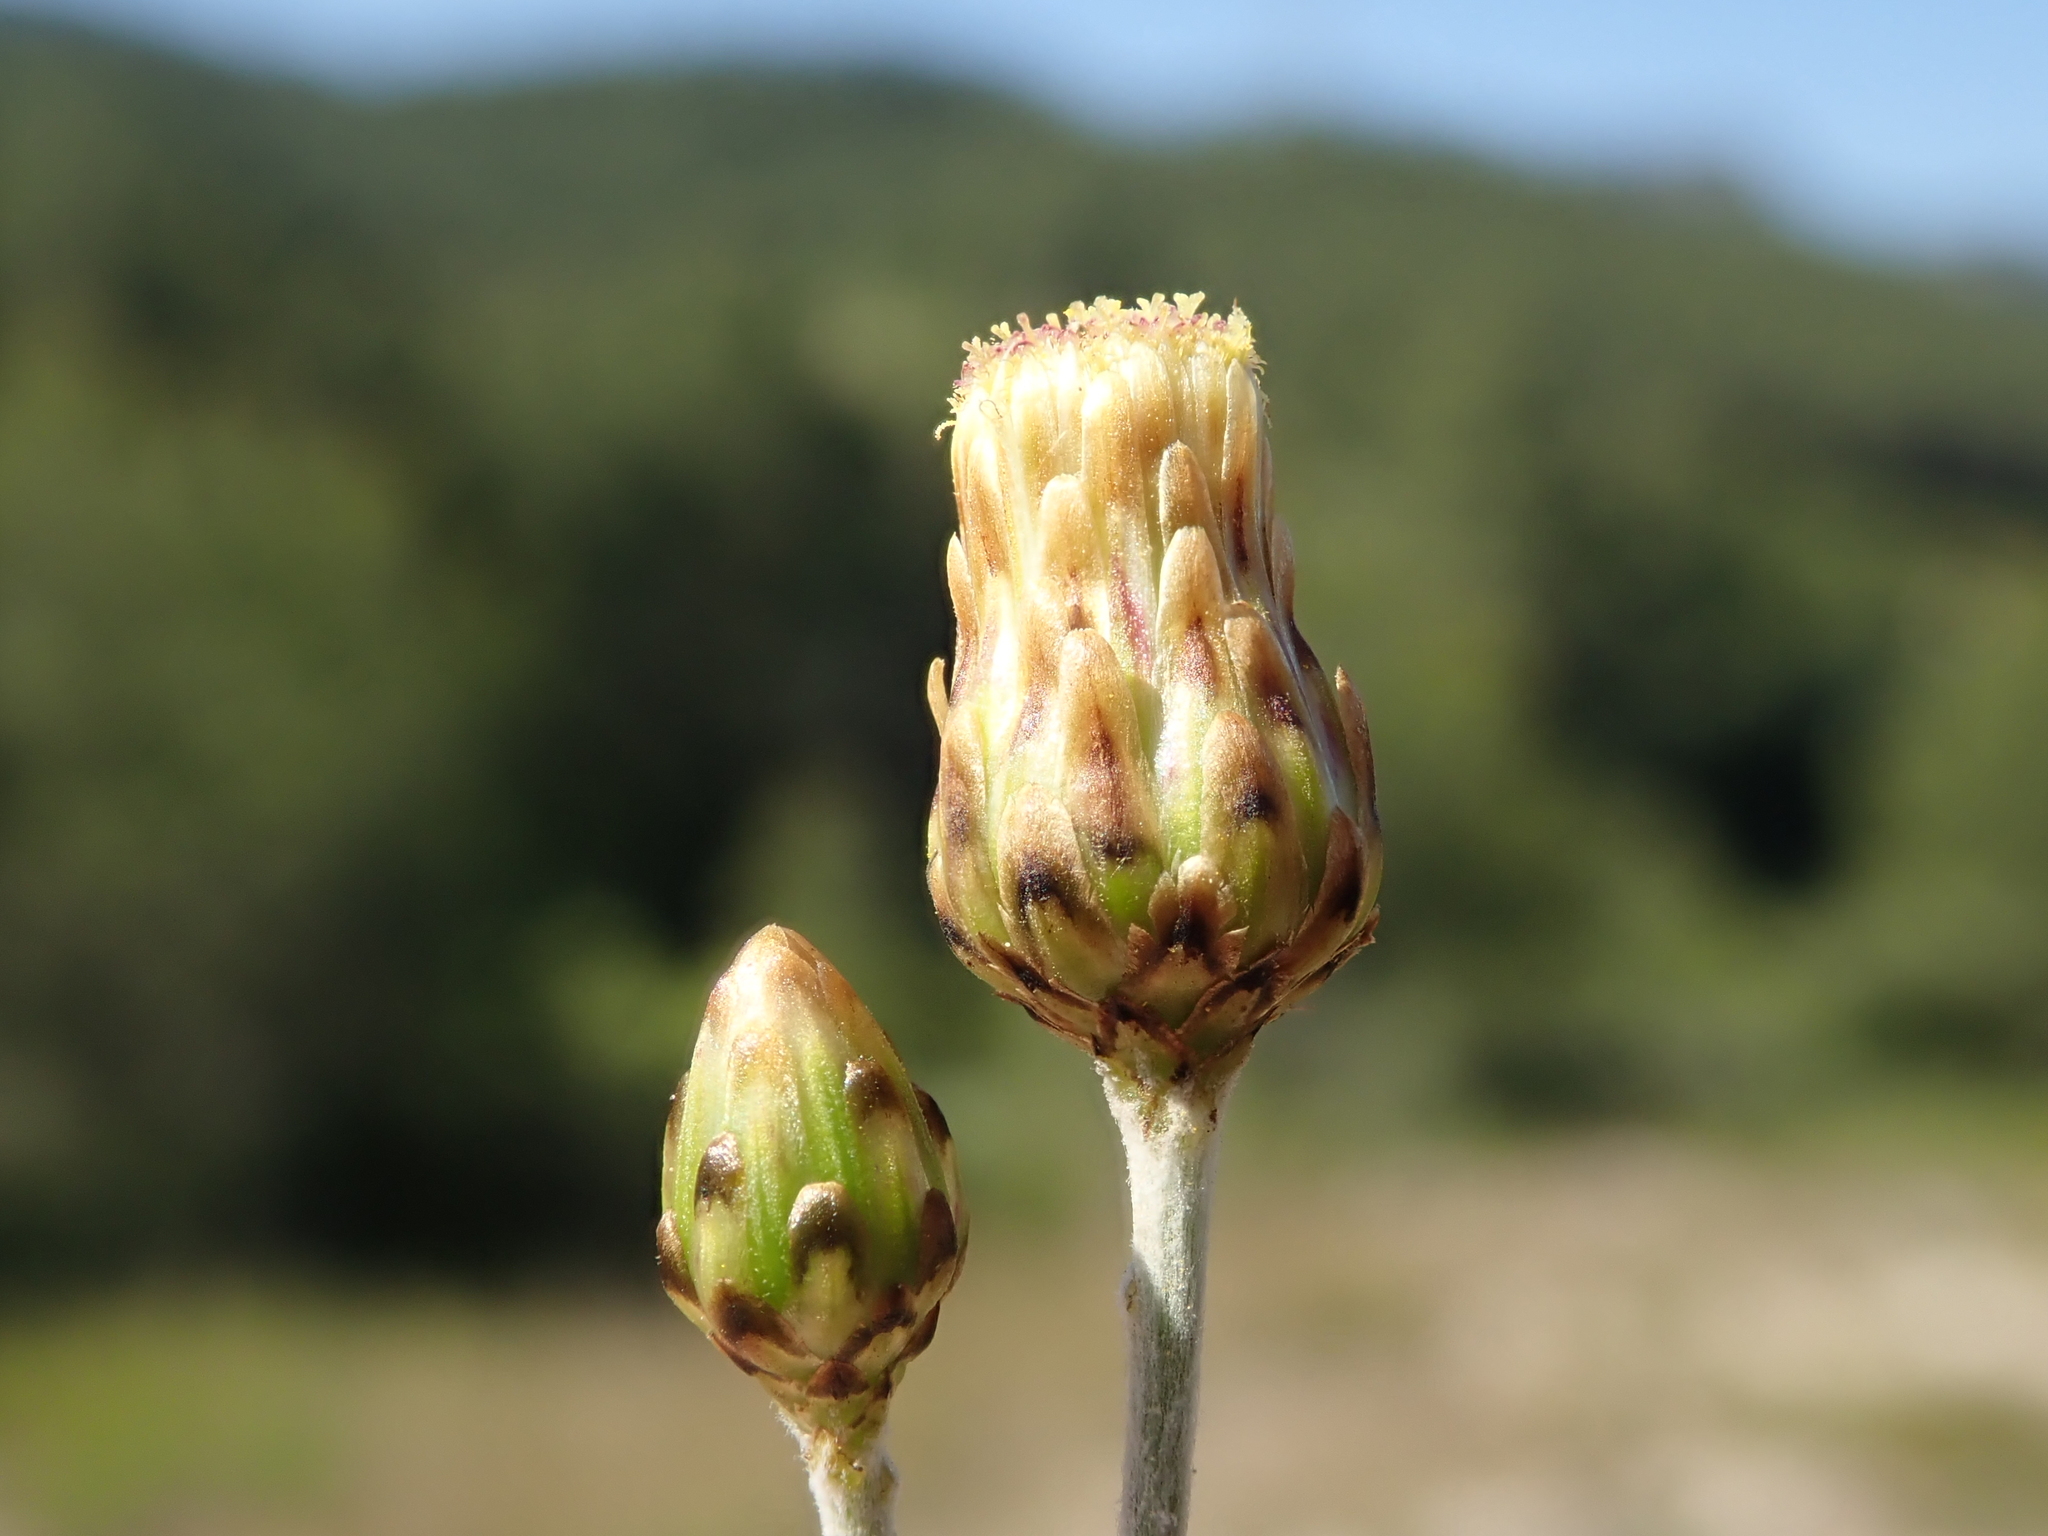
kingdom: Plantae
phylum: Tracheophyta
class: Magnoliopsida
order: Asterales
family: Asteraceae
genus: Phagnalon
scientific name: Phagnalon rupestre
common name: Rock phagnalon
